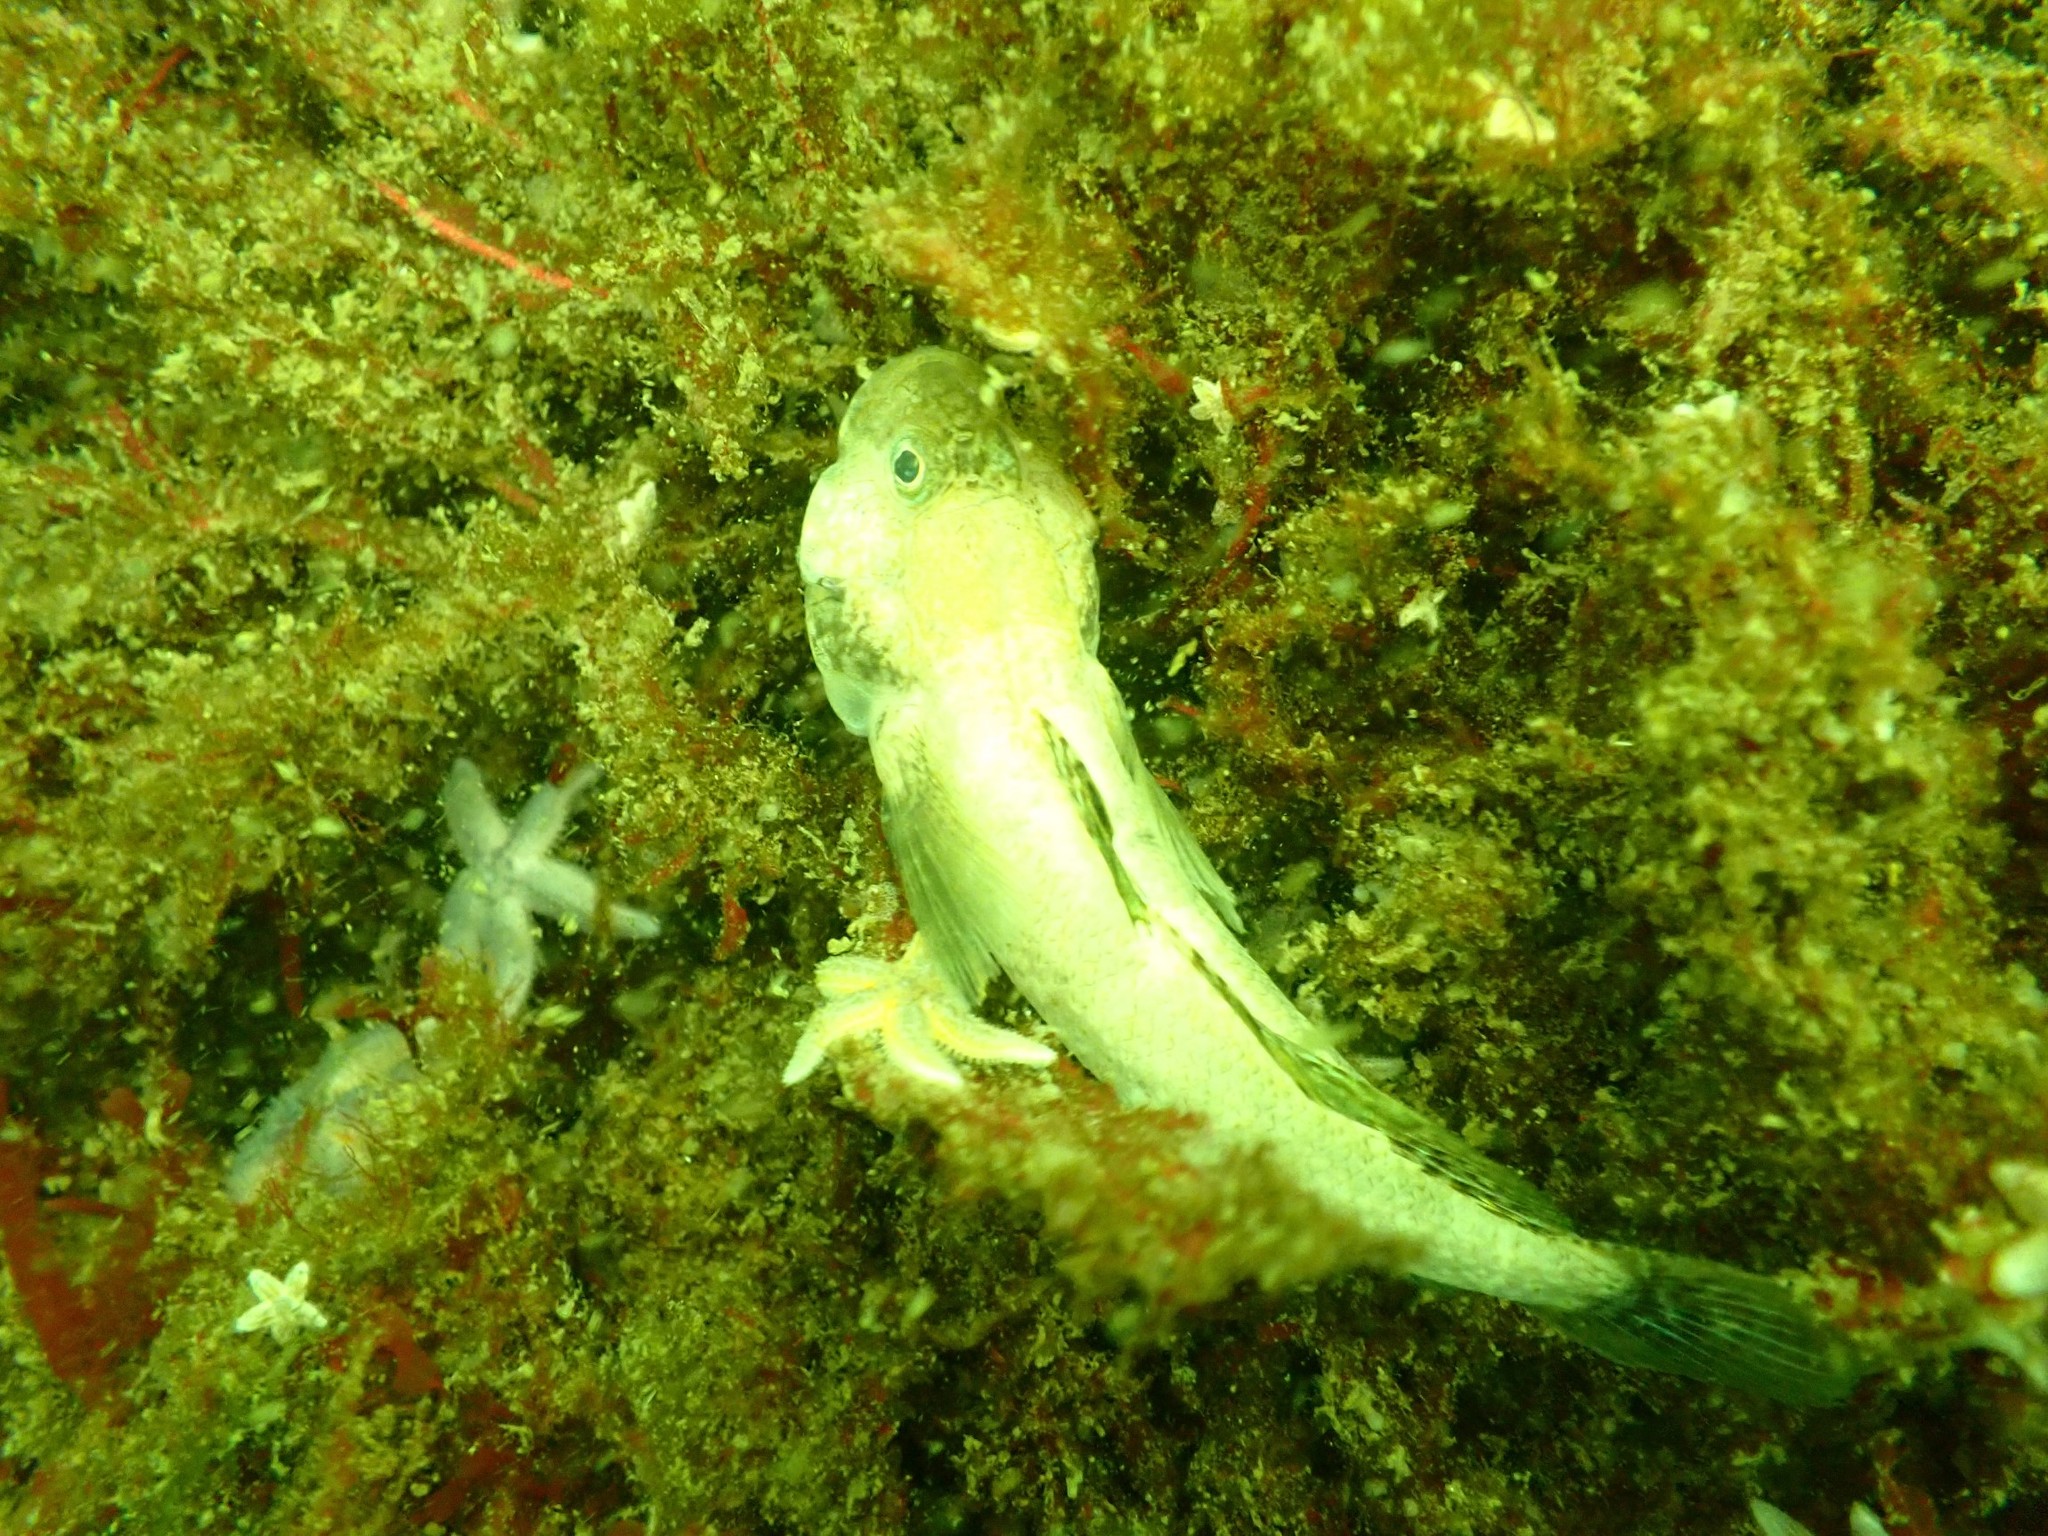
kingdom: Animalia
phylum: Chordata
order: Perciformes
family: Gobiidae
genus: Gobius
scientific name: Gobius niger
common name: Black goby
